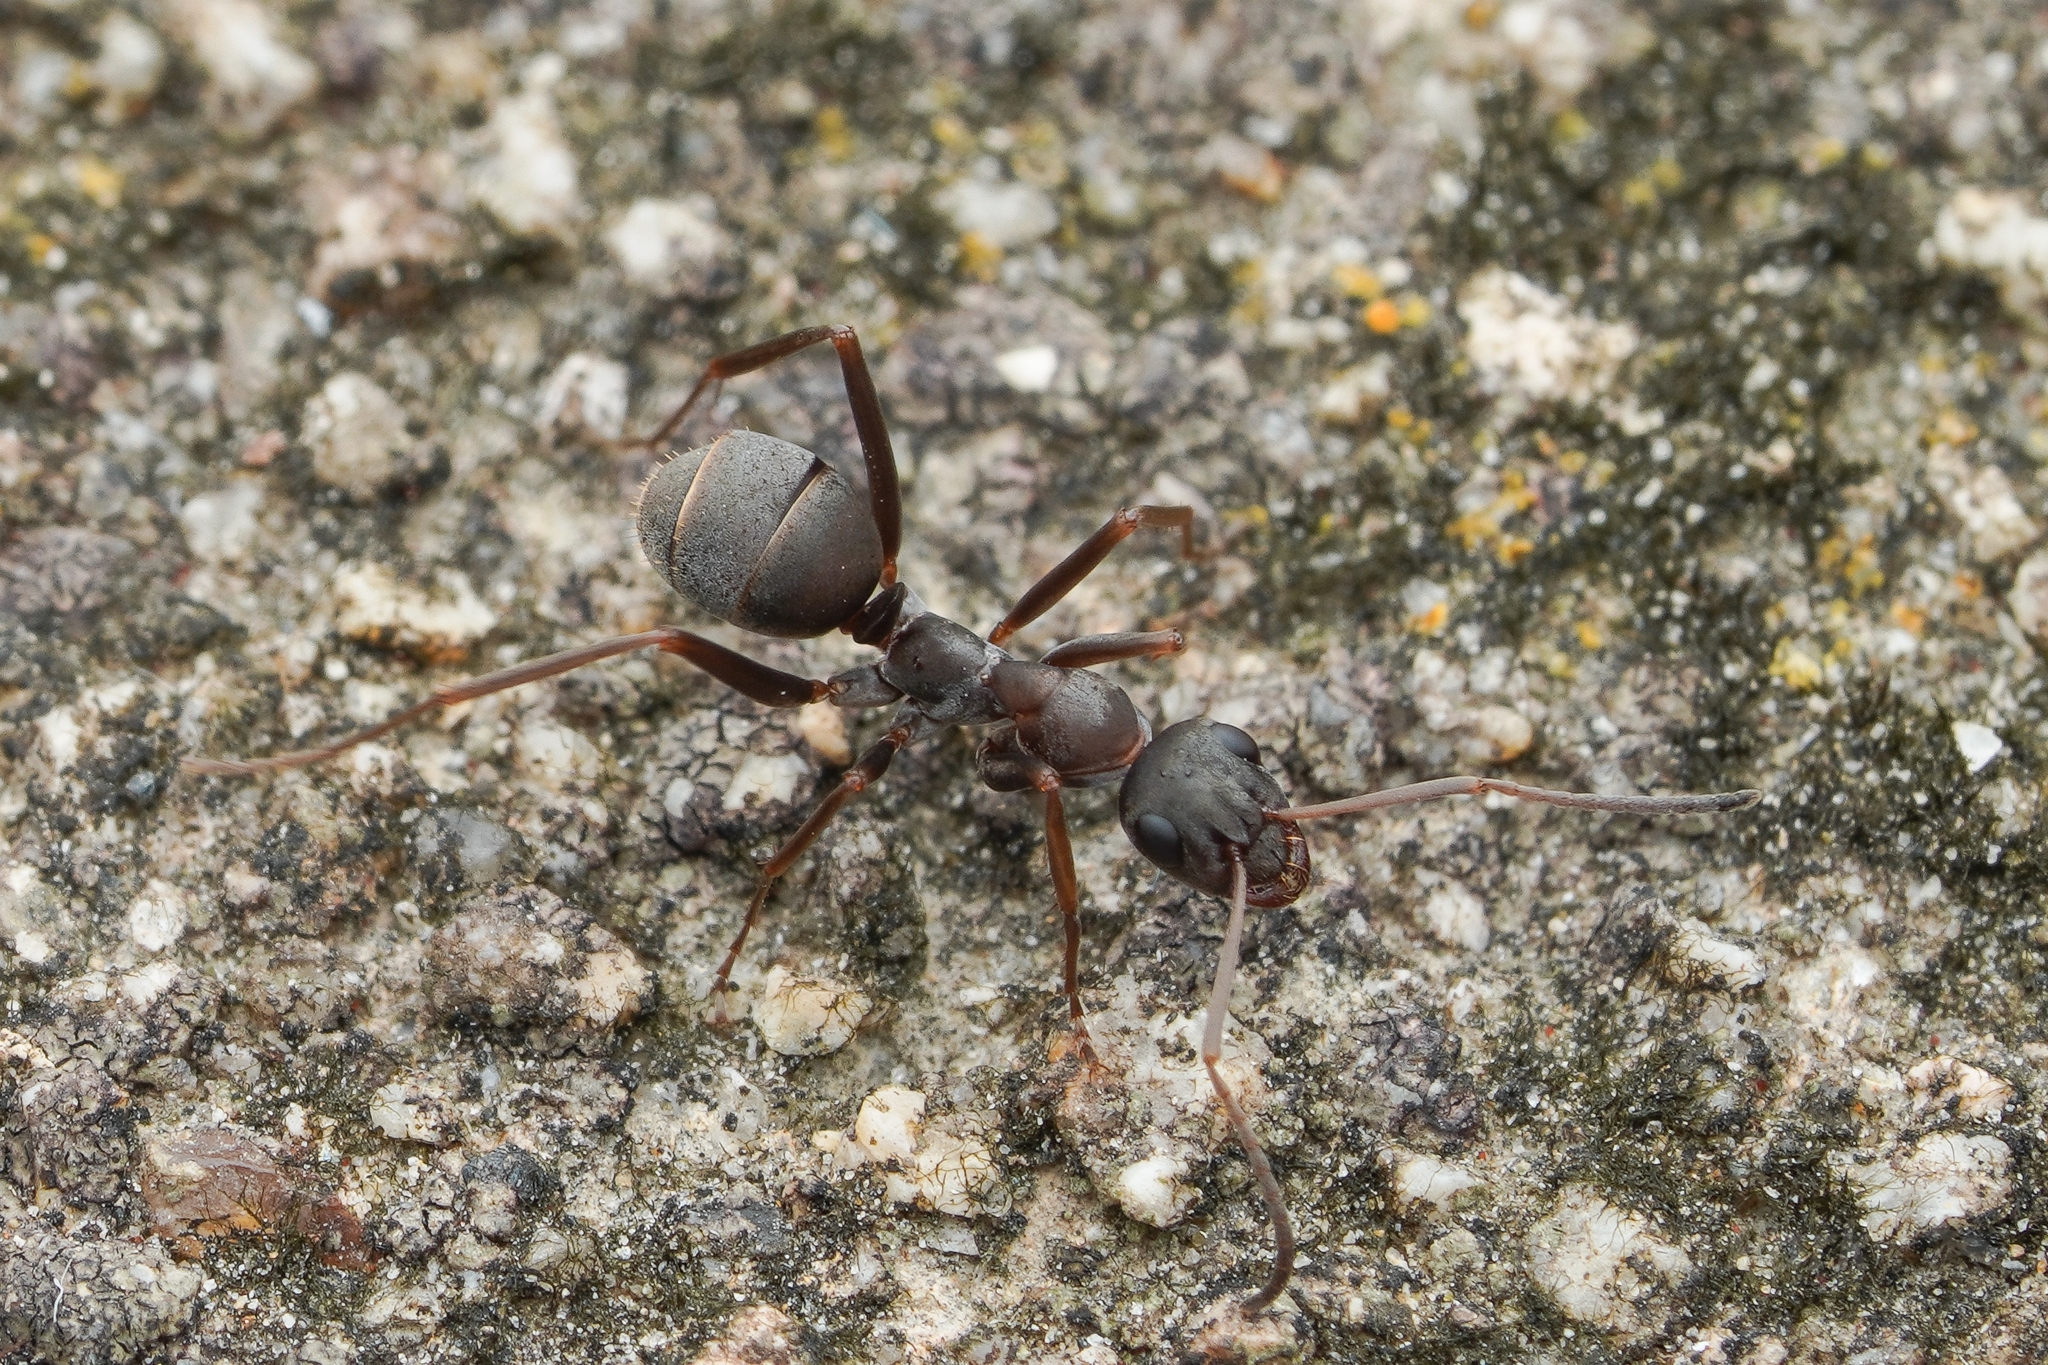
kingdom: Animalia
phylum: Arthropoda
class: Insecta
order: Hymenoptera
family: Formicidae
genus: Formica
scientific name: Formica japonica
